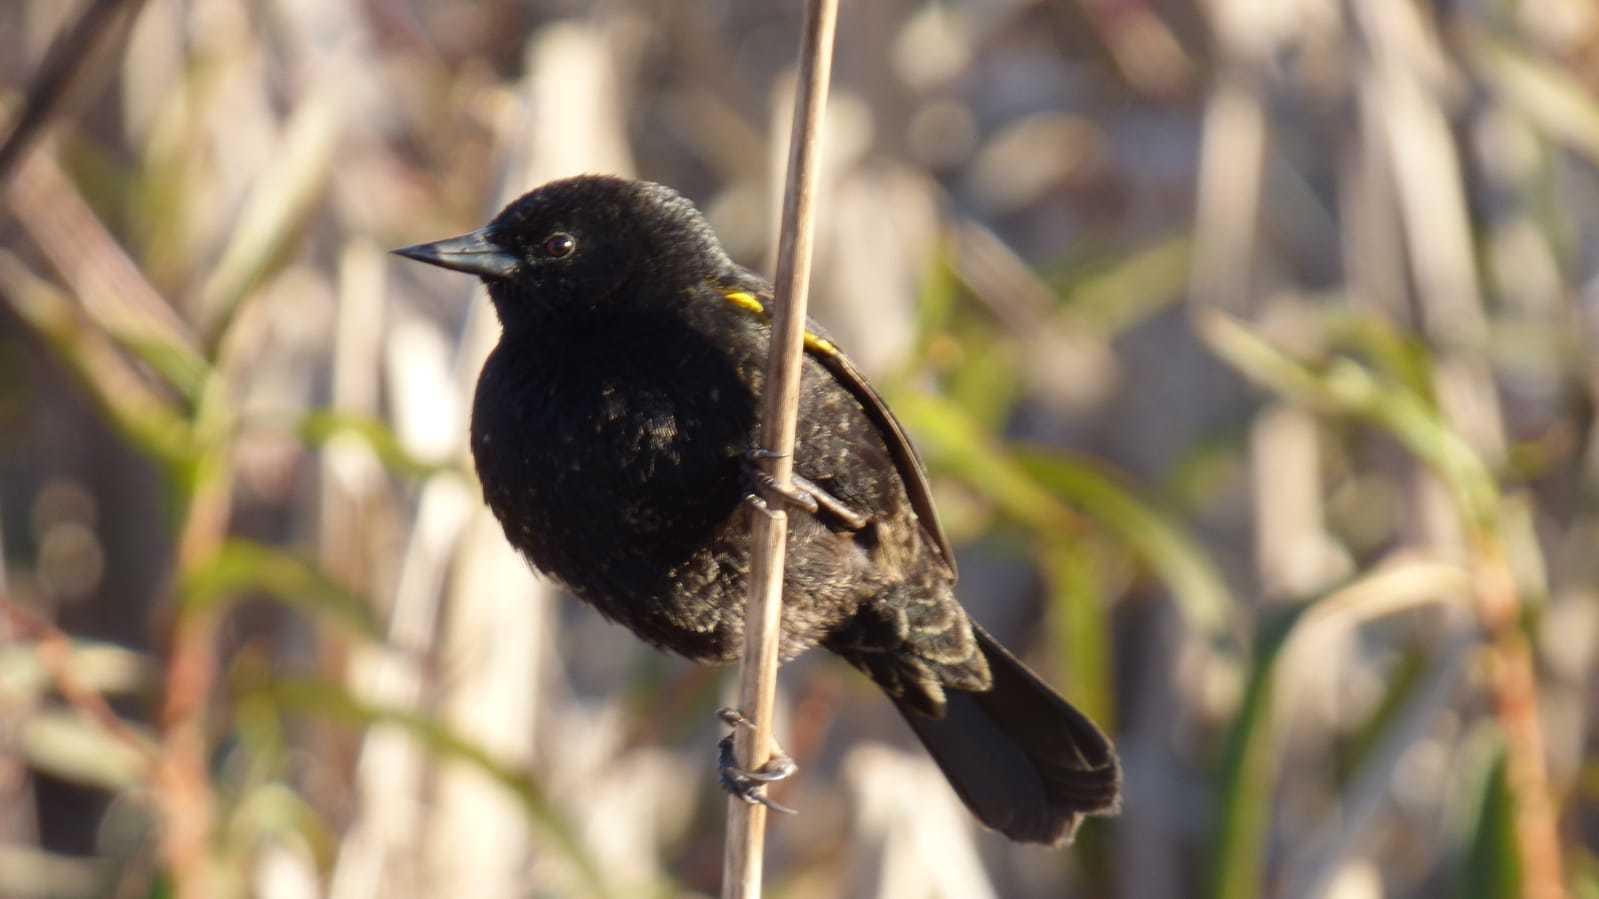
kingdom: Animalia
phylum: Chordata
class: Aves
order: Passeriformes
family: Icteridae
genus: Agelasticus
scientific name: Agelasticus thilius
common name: Yellow-winged blackbird
